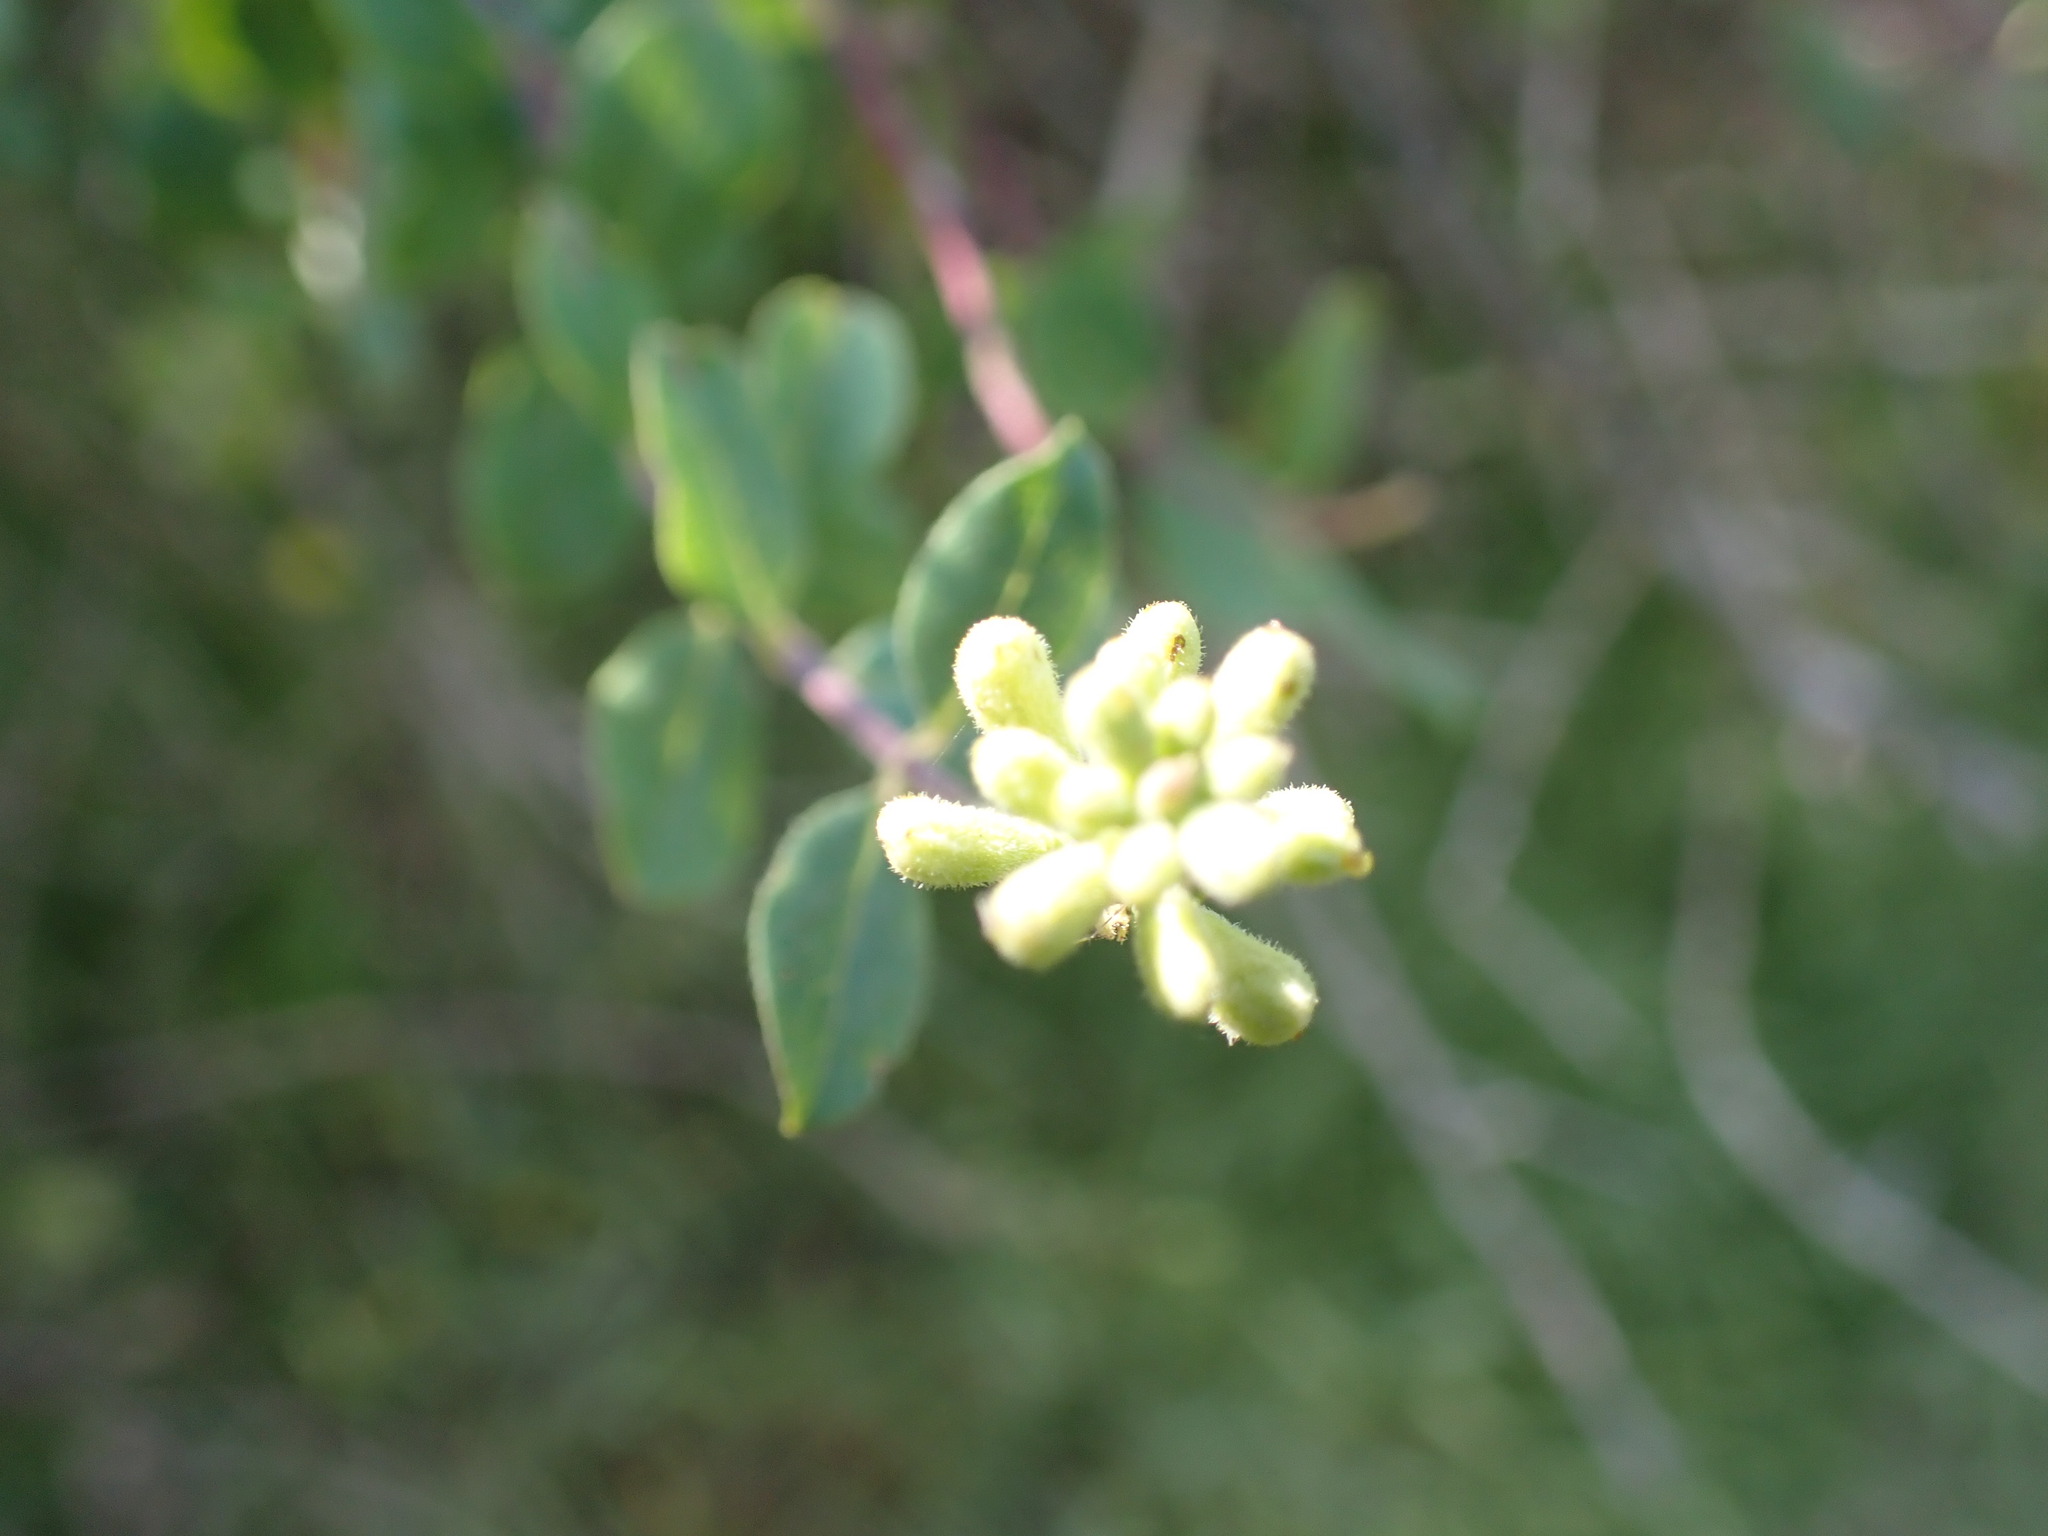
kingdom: Plantae
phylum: Tracheophyta
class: Magnoliopsida
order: Dipsacales
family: Caprifoliaceae
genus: Lonicera
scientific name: Lonicera subspicata
